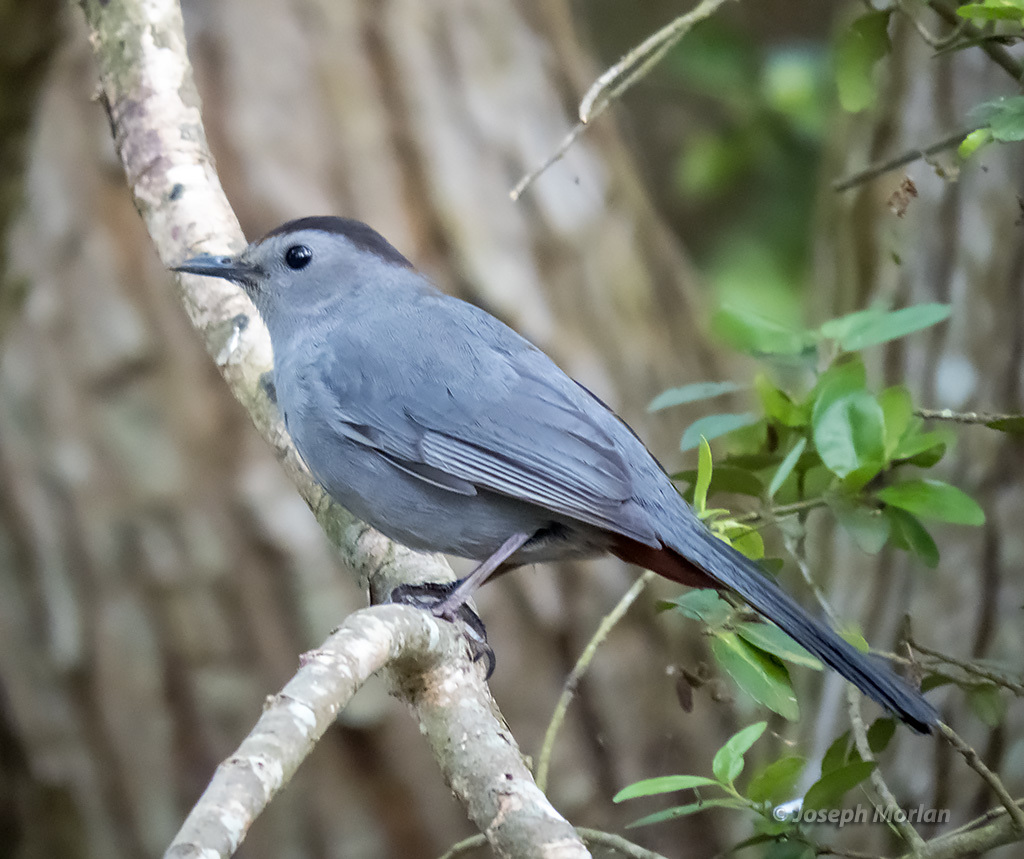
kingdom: Animalia
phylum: Chordata
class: Aves
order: Passeriformes
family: Mimidae
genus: Dumetella
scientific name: Dumetella carolinensis
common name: Gray catbird
